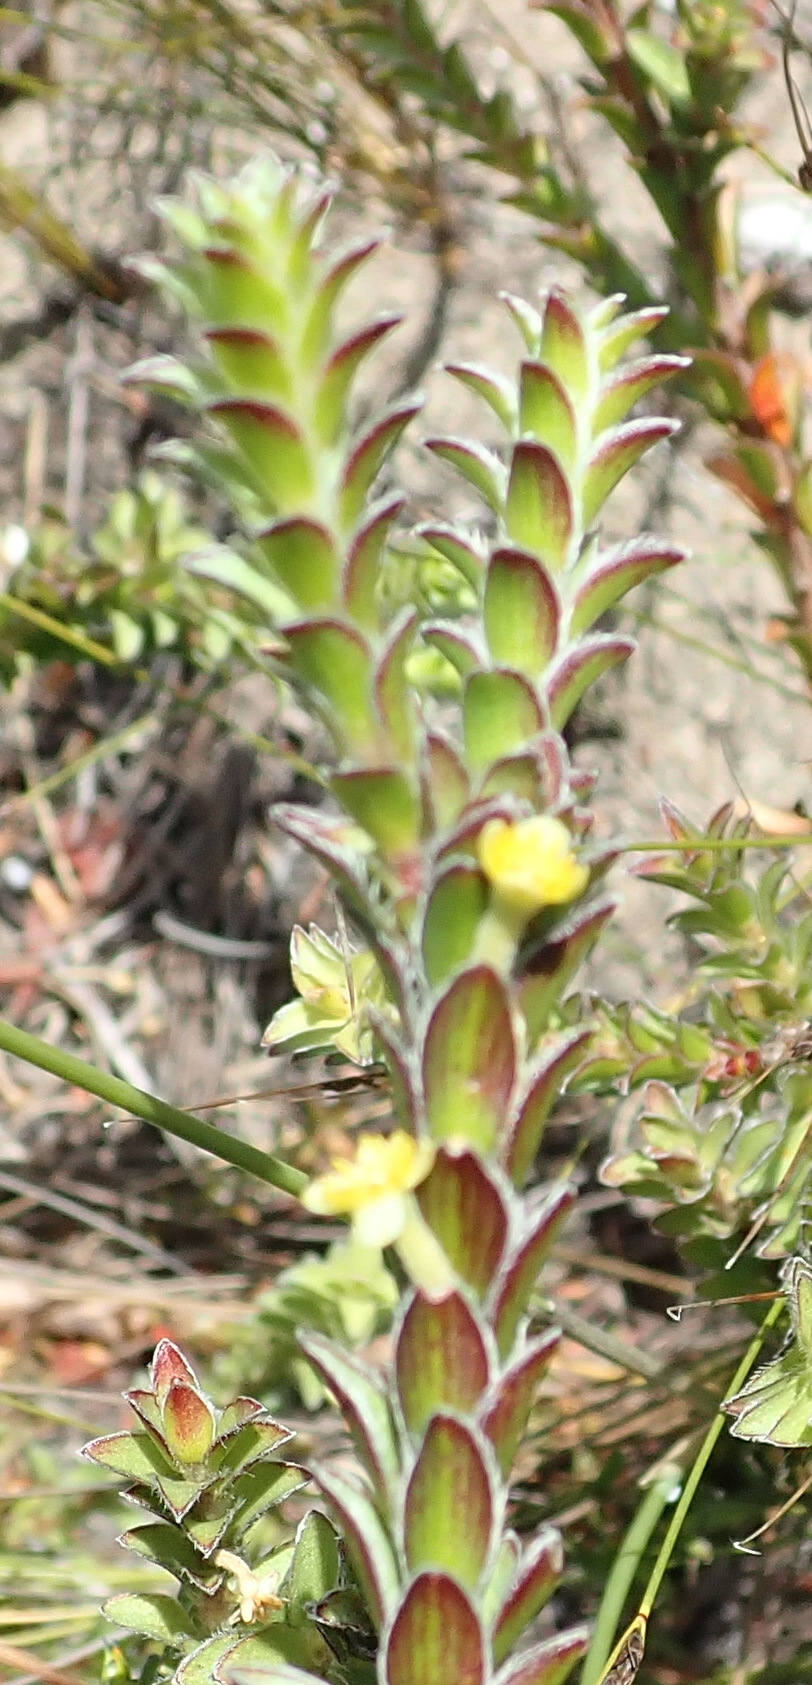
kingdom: Plantae
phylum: Tracheophyta
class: Magnoliopsida
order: Malvales
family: Thymelaeaceae
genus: Struthiola
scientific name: Struthiola argentea
